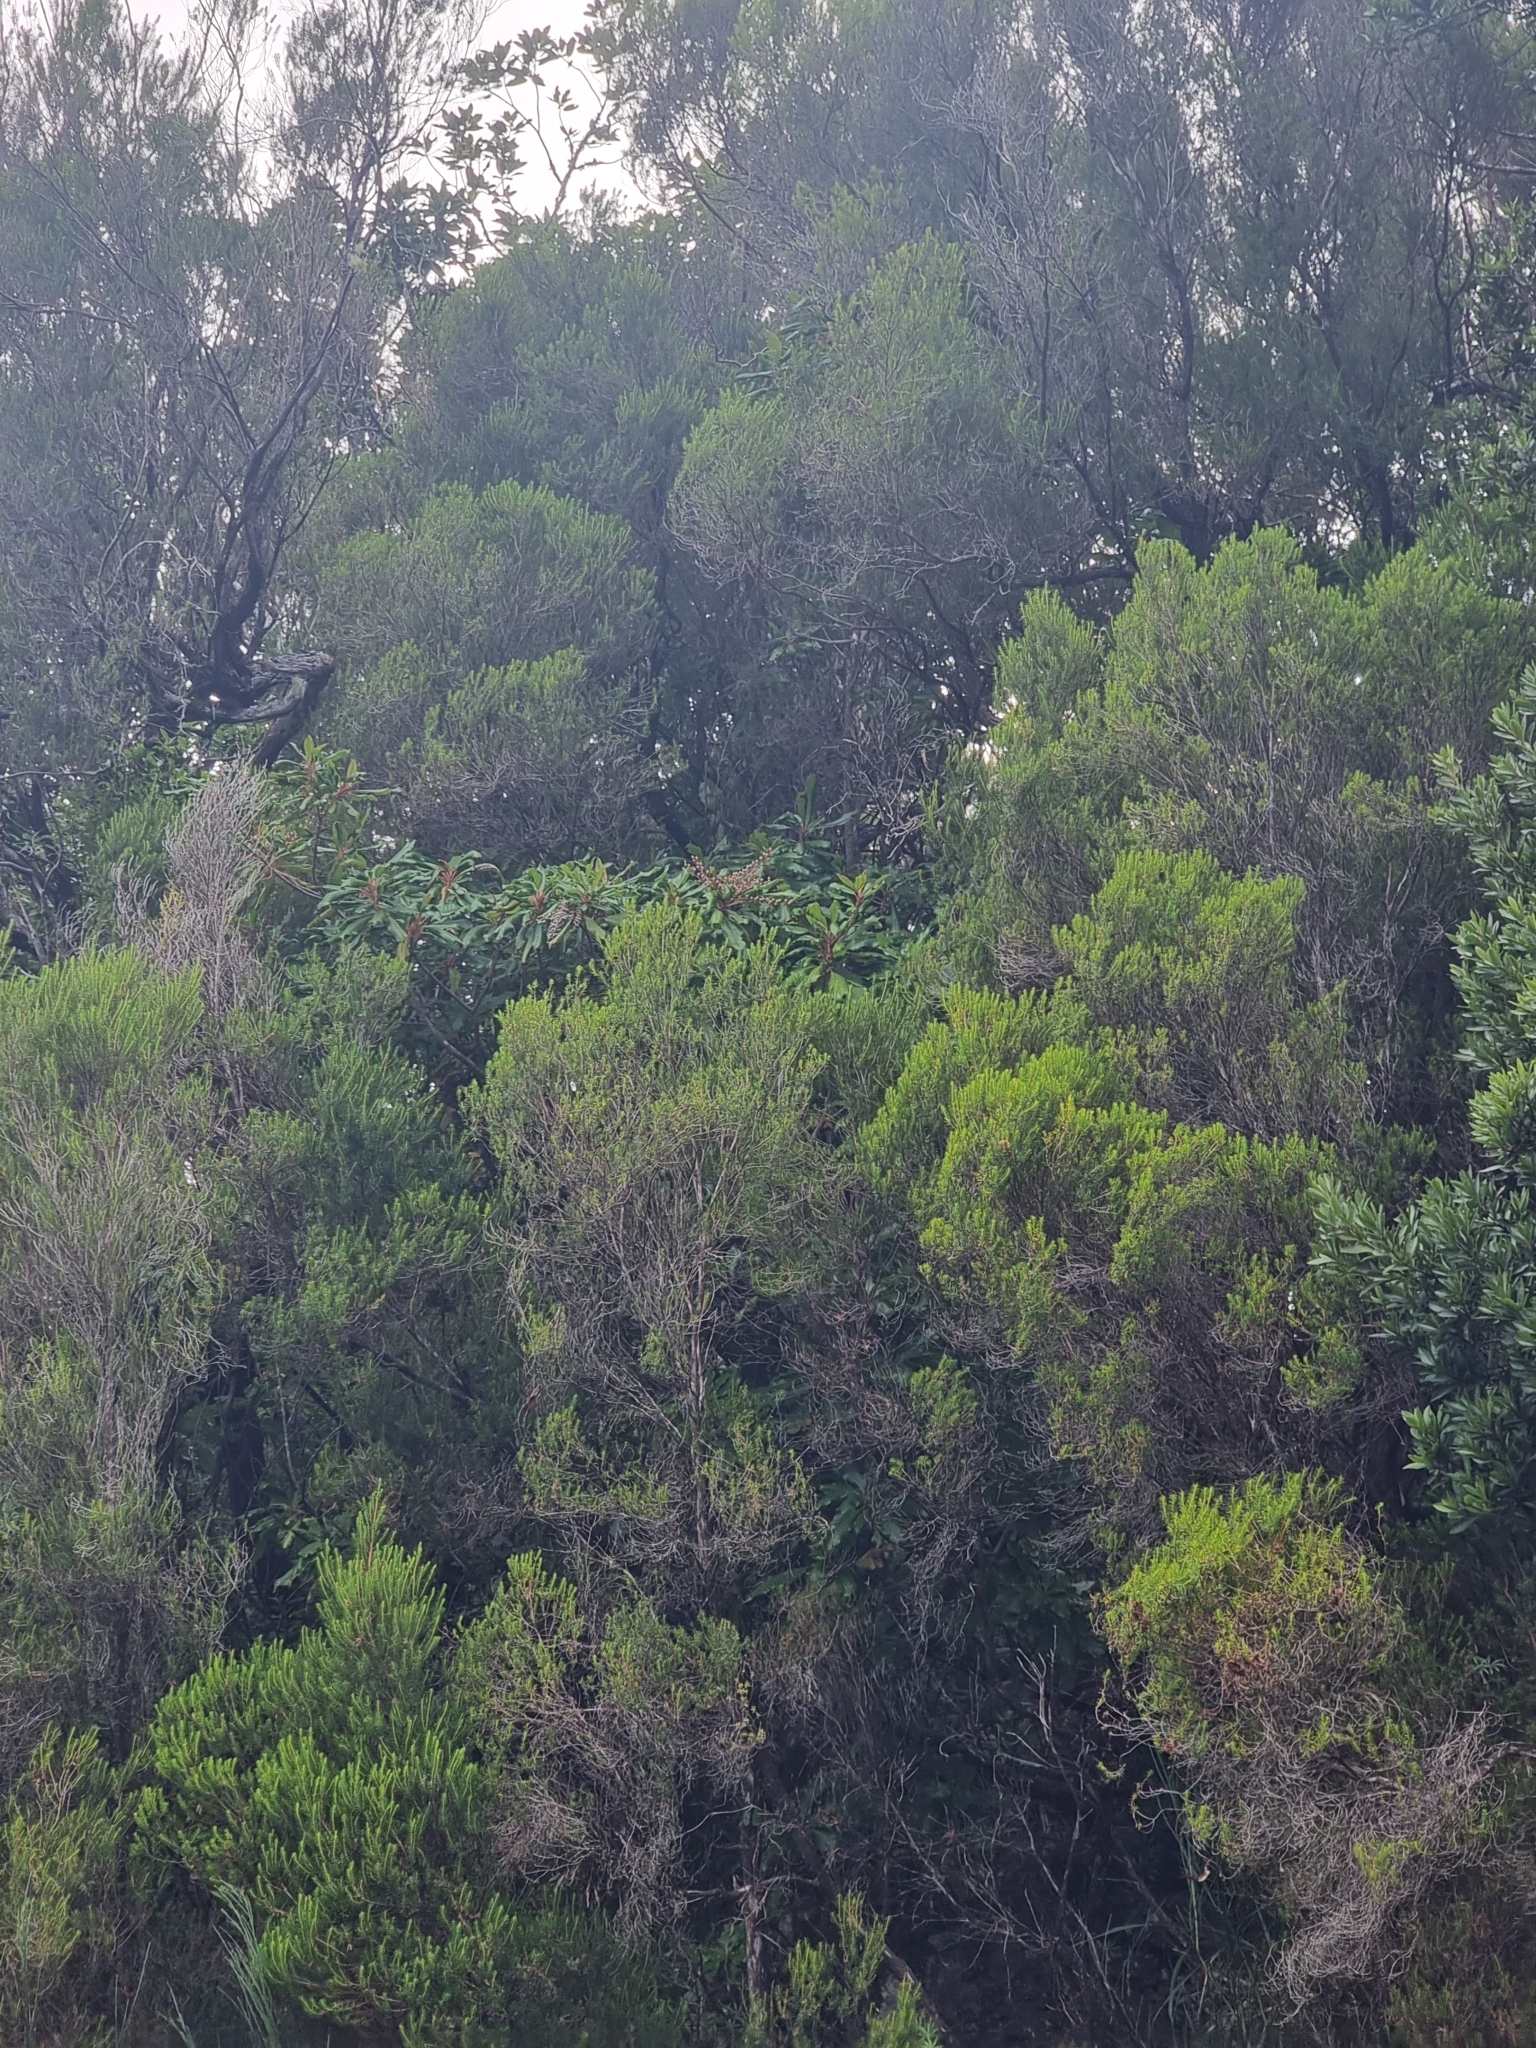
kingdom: Plantae
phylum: Tracheophyta
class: Magnoliopsida
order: Ericales
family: Clethraceae
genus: Clethra
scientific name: Clethra arborea
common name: Lily-of-the-valley-tree
